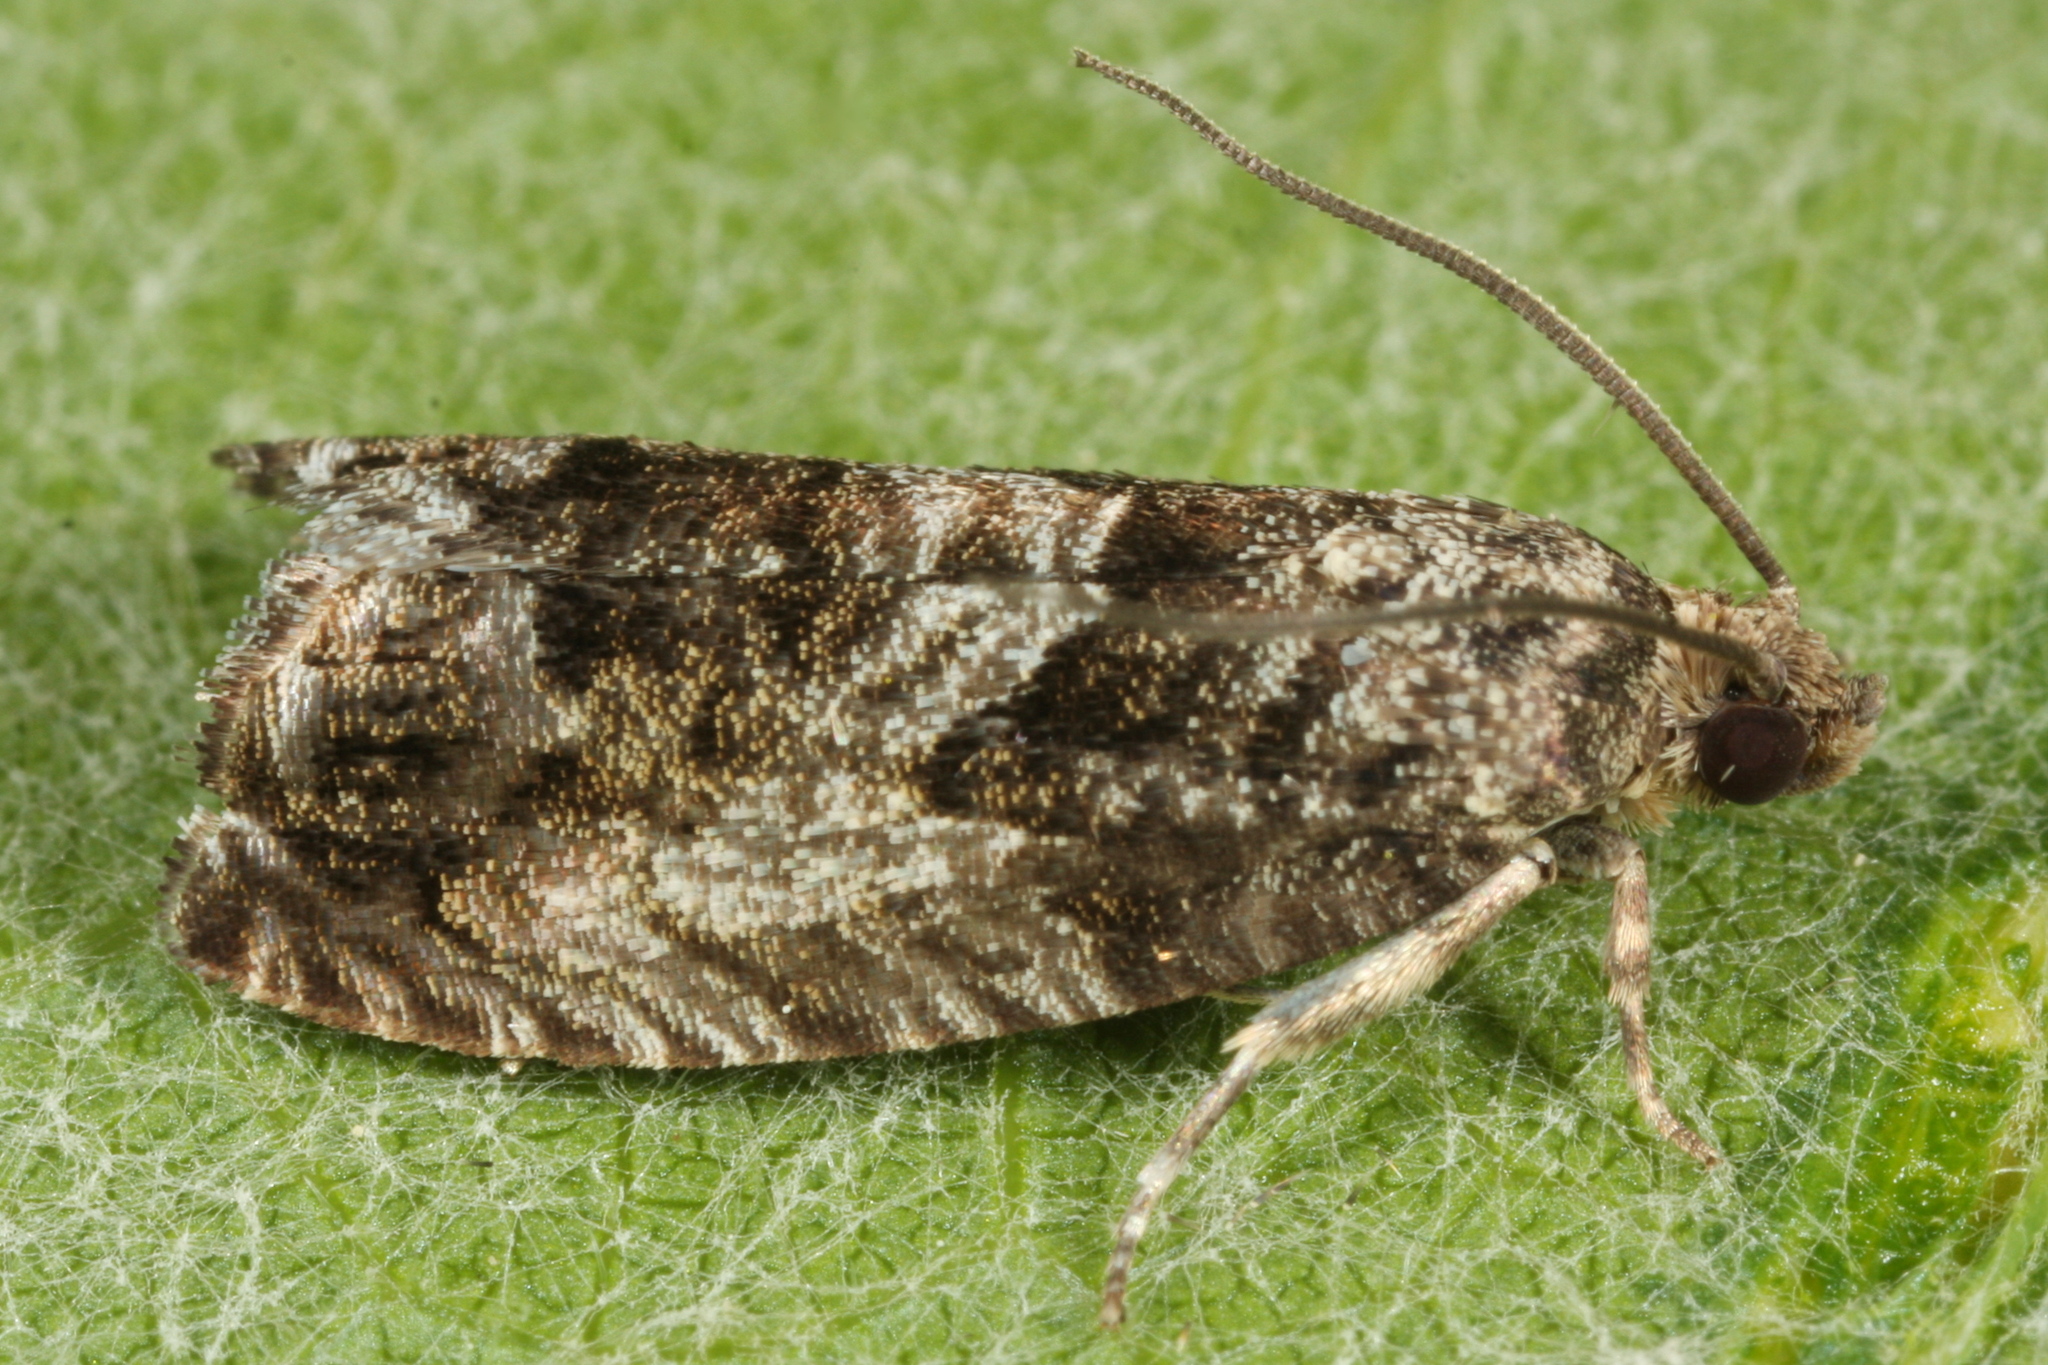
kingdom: Animalia
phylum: Arthropoda
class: Insecta
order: Lepidoptera
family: Tortricidae
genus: Cydia
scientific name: Cydia fagiglandana
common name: Large beech piercer
